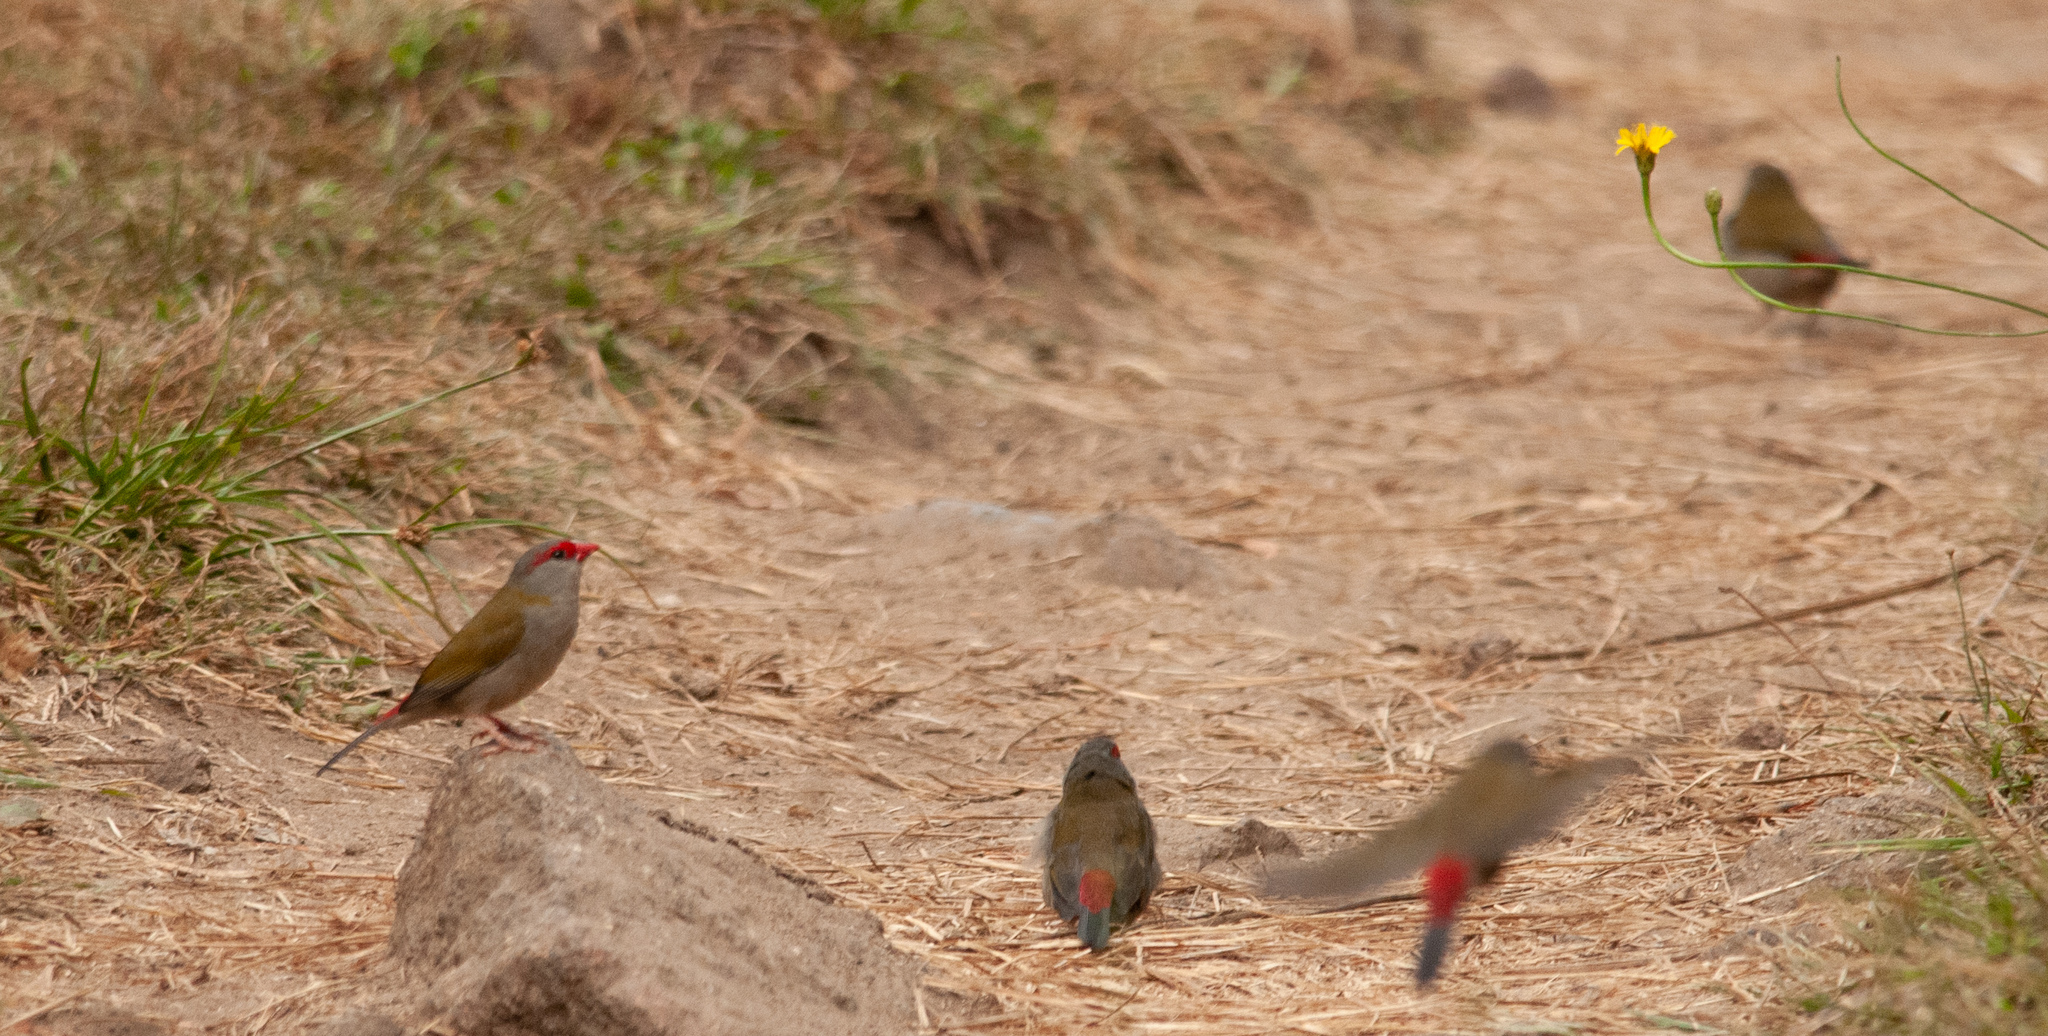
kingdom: Animalia
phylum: Chordata
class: Aves
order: Passeriformes
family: Estrildidae
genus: Neochmia
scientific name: Neochmia temporalis
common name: Red-browed finch
